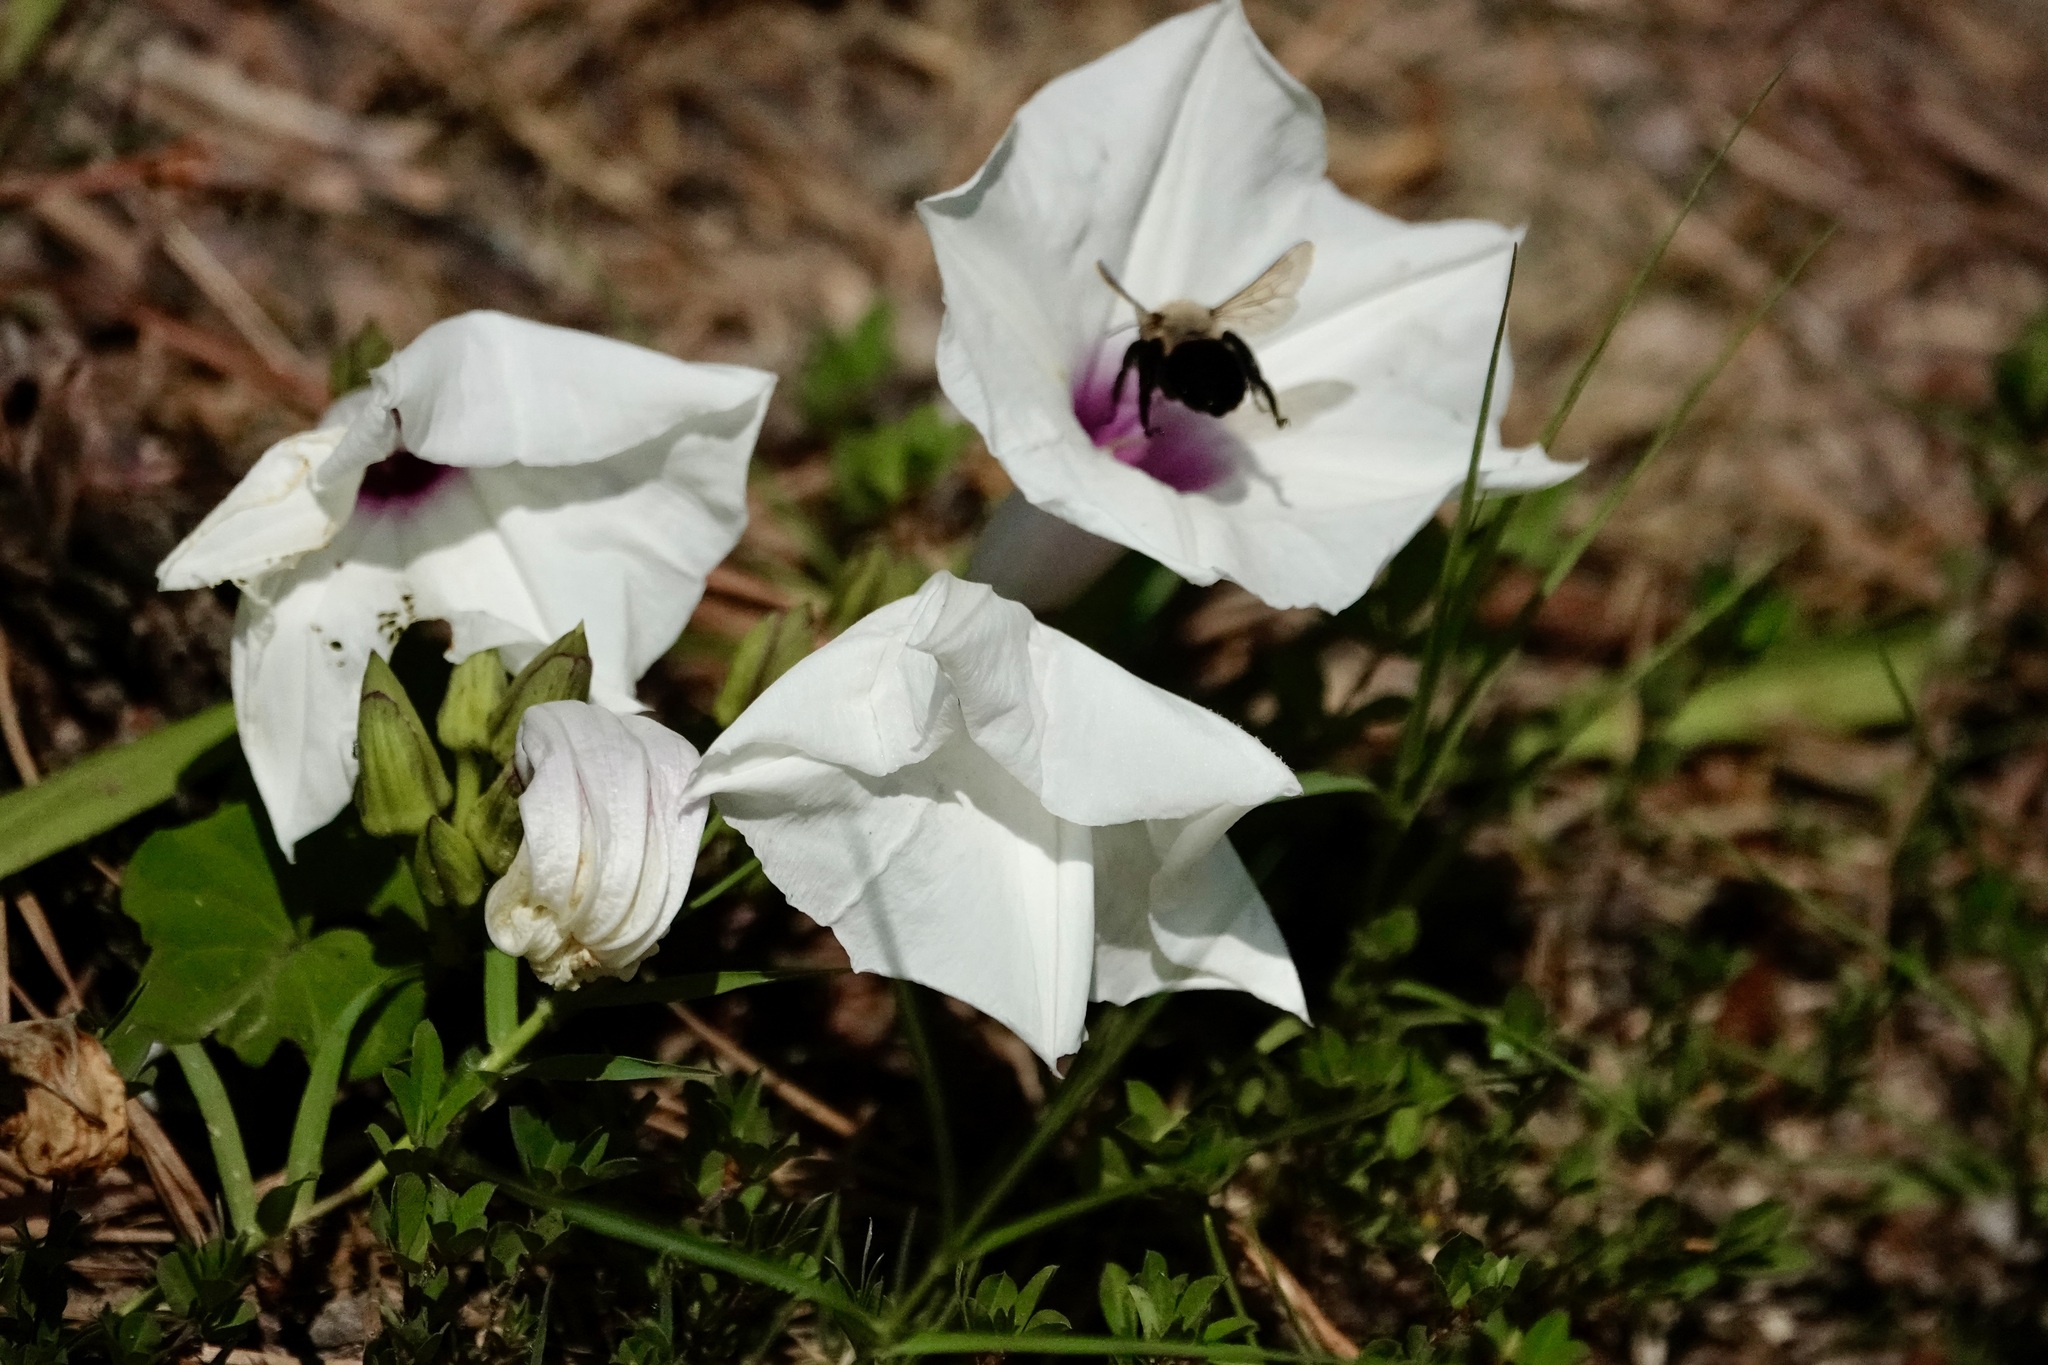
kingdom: Plantae
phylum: Tracheophyta
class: Magnoliopsida
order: Solanales
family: Convolvulaceae
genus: Ipomoea
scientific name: Ipomoea pandurata
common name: Man-of-the-earth
